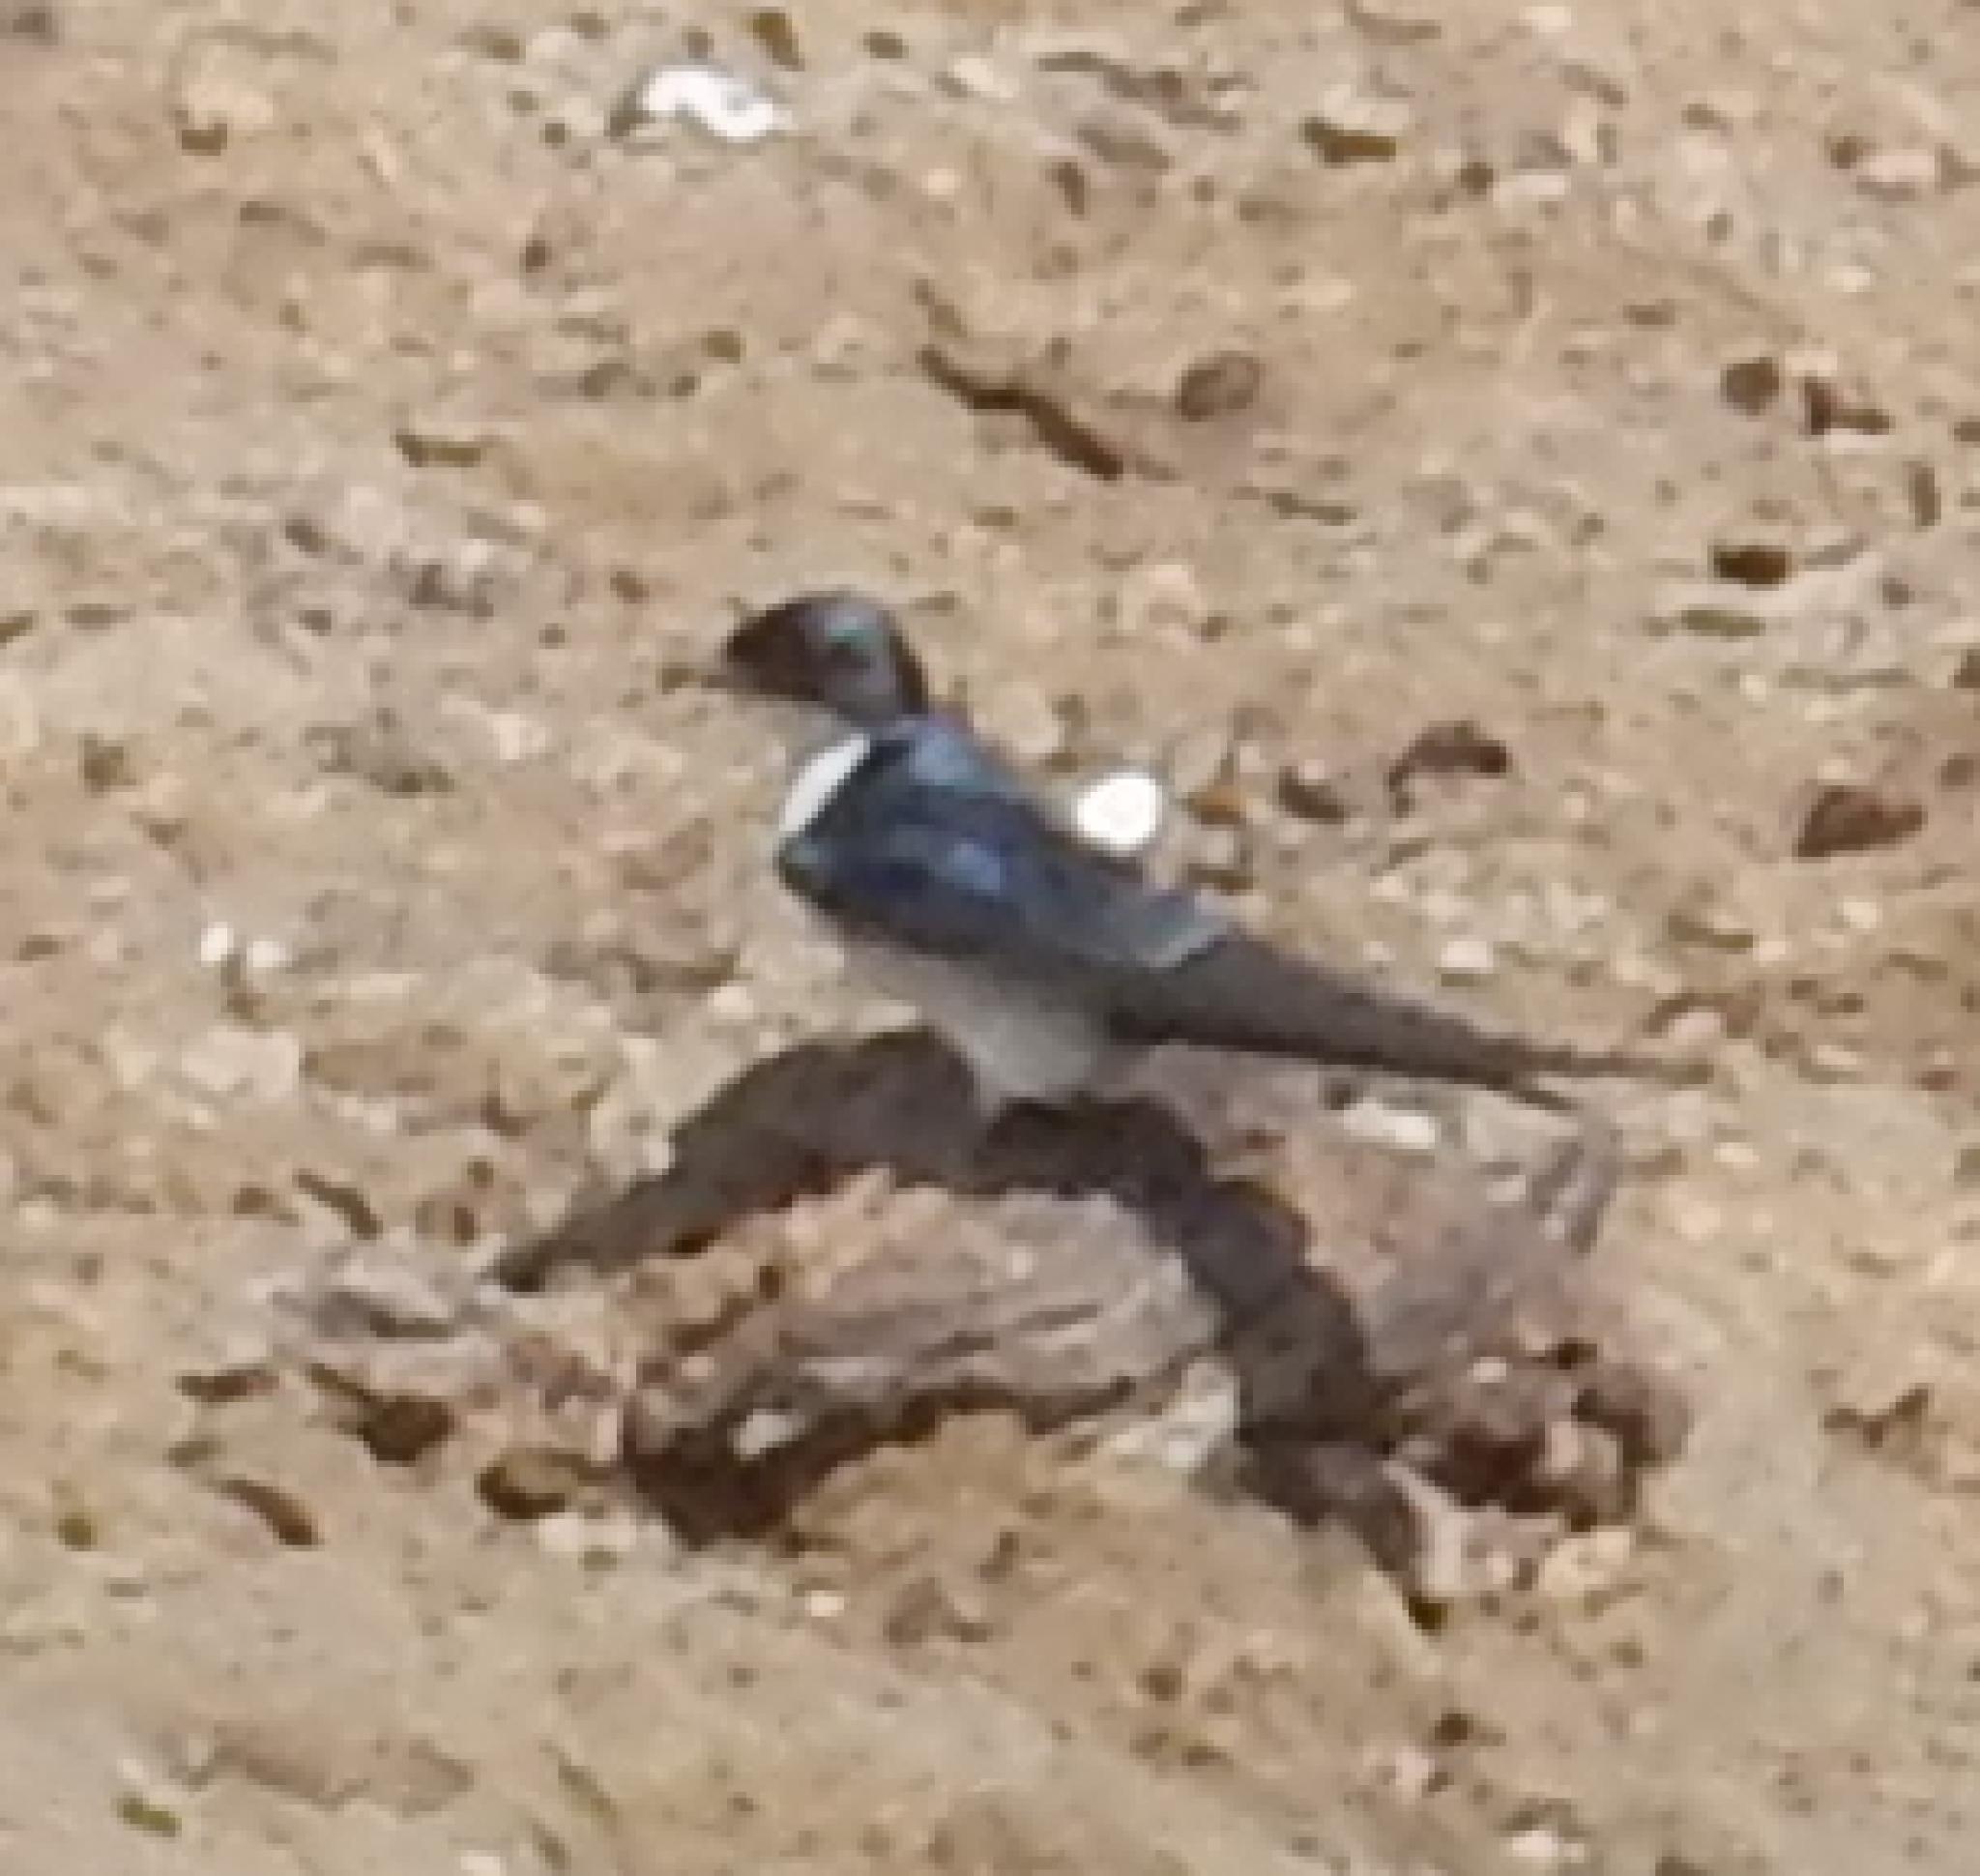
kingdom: Animalia
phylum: Chordata
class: Aves
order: Passeriformes
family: Hirundinidae
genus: Hirundo
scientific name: Hirundo dimidiata
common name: Pearl-breasted swallow
